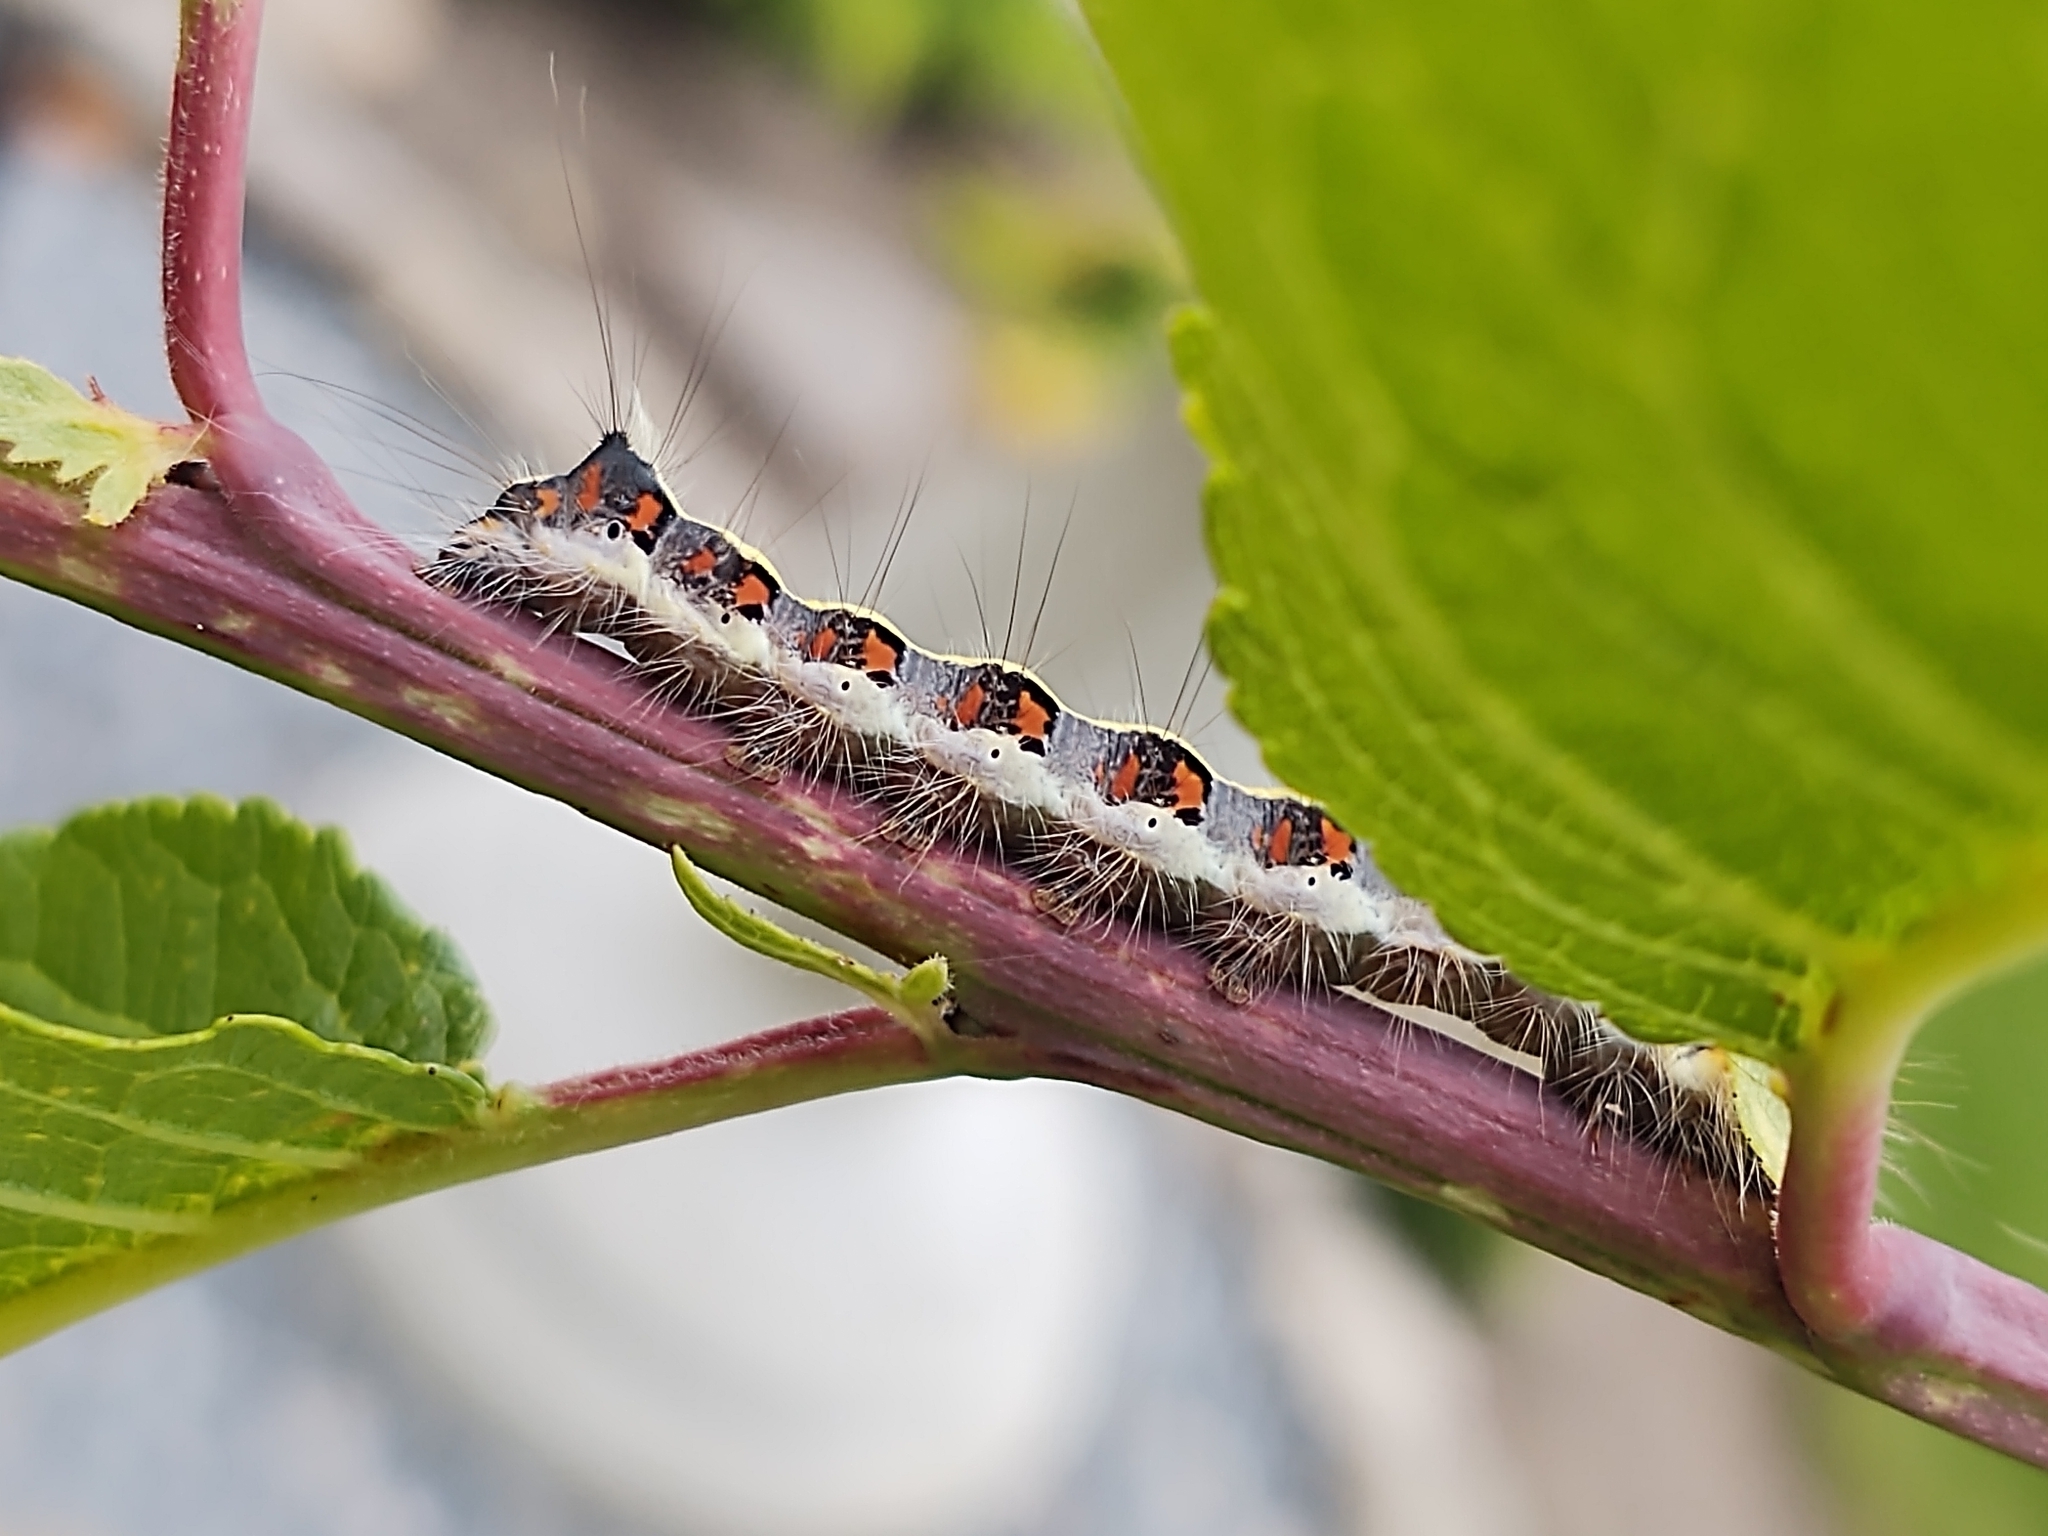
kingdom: Animalia
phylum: Arthropoda
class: Insecta
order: Lepidoptera
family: Noctuidae
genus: Acronicta
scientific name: Acronicta psi
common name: Grey dagger
